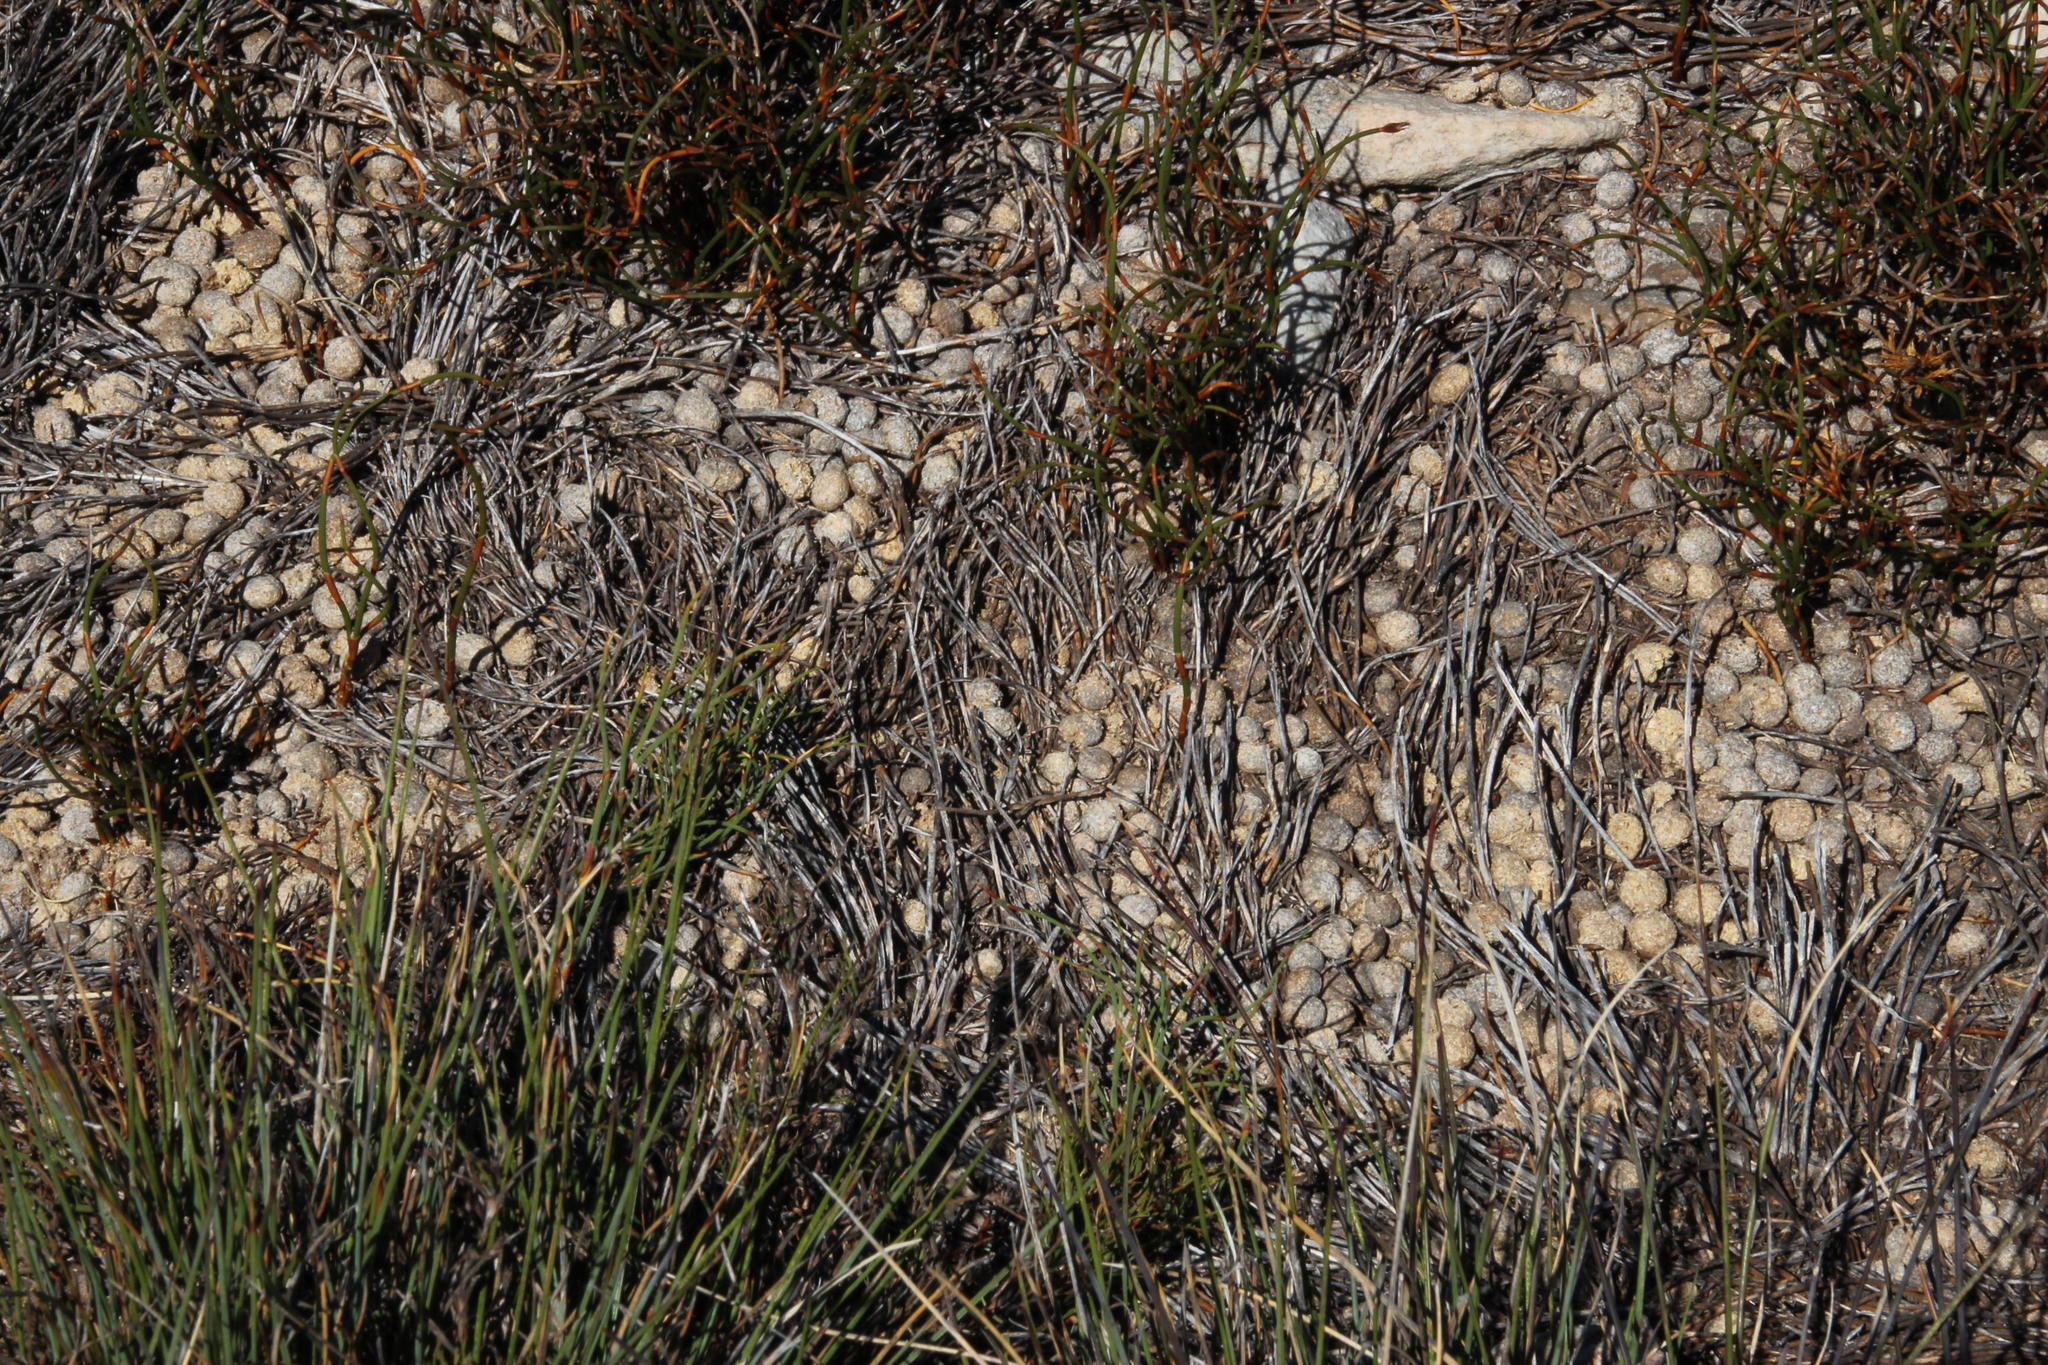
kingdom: Animalia
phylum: Chordata
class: Mammalia
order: Lagomorpha
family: Leporidae
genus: Pronolagus
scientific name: Pronolagus saundersiae
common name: Hewitt's red rock hare
